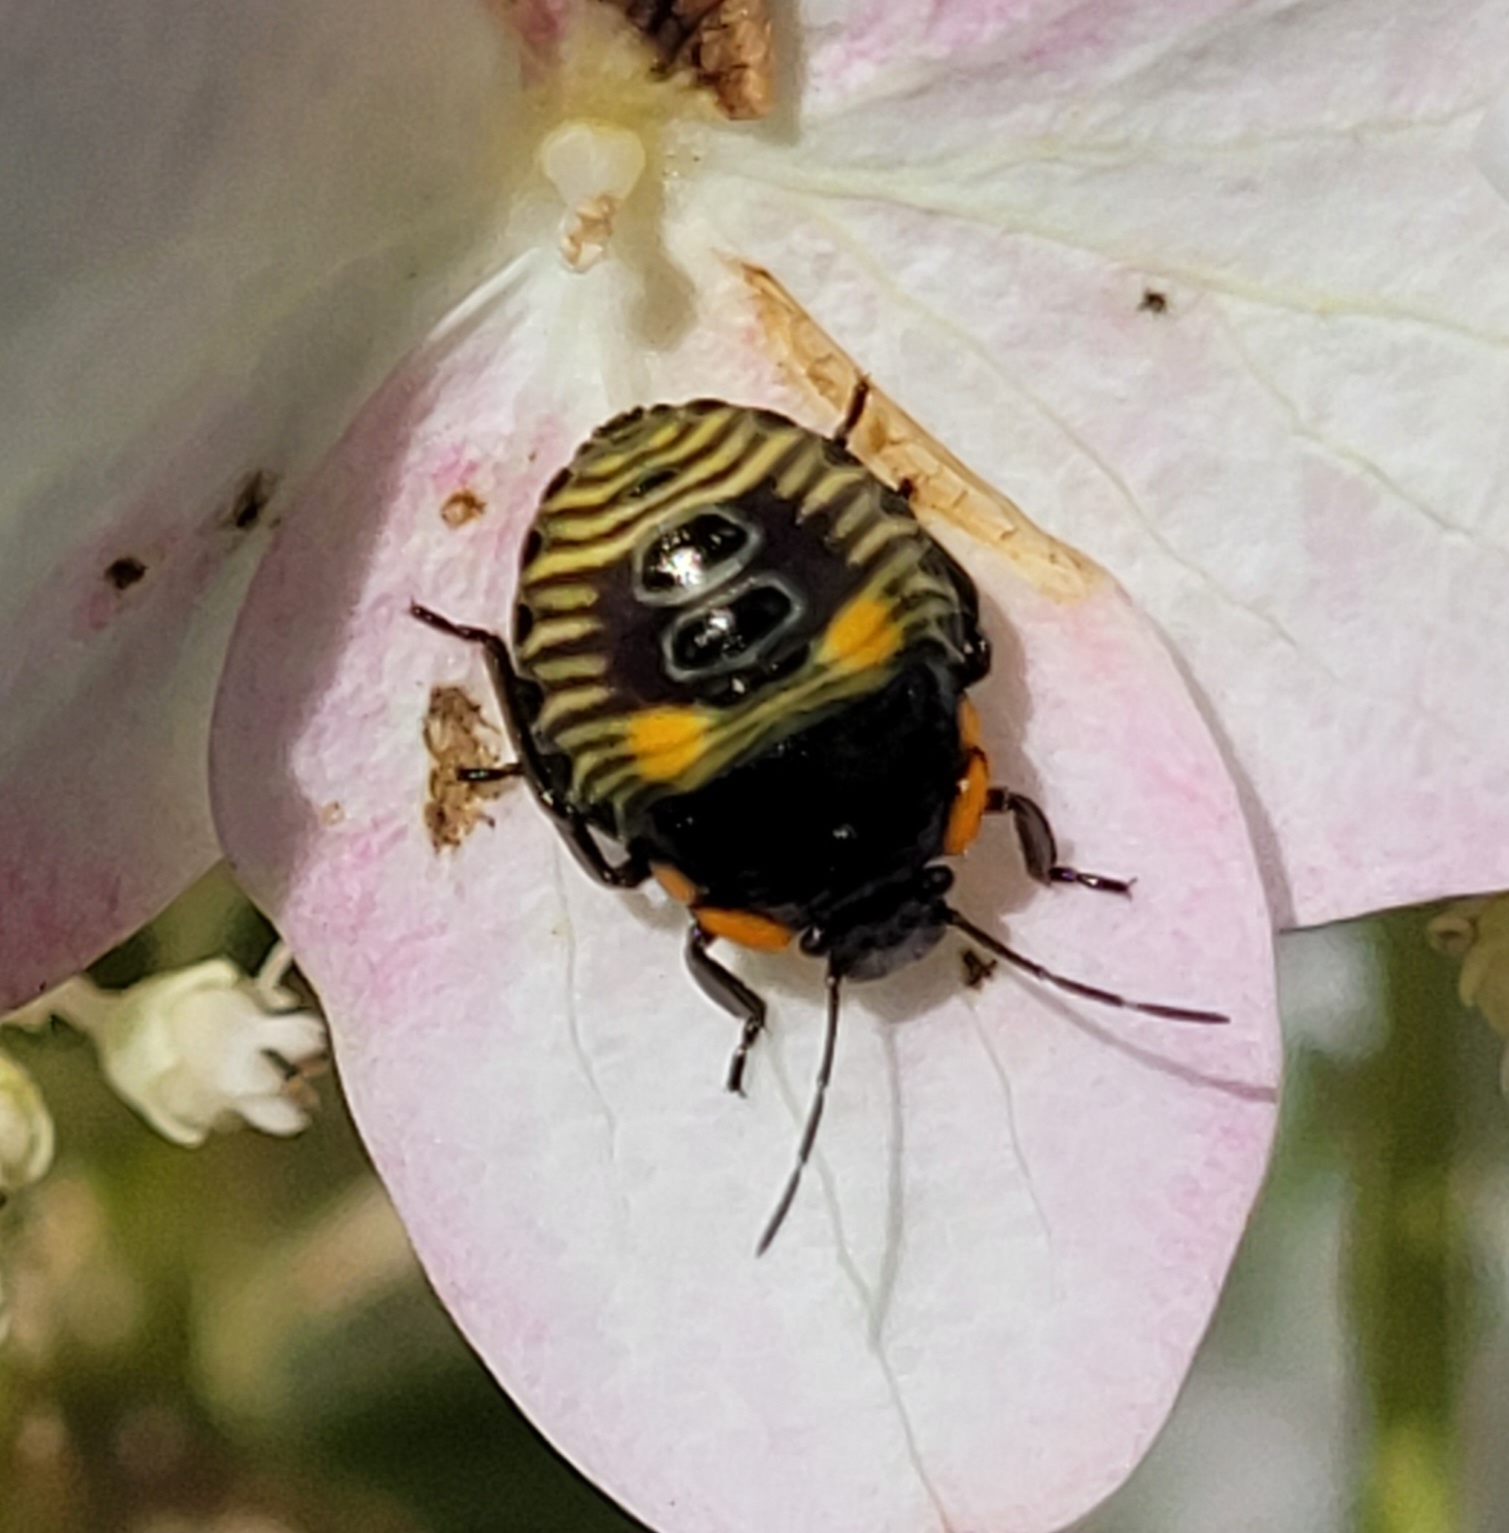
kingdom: Animalia
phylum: Arthropoda
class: Insecta
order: Hemiptera
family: Pentatomidae
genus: Chinavia
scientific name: Chinavia hilaris
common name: Green stink bug
